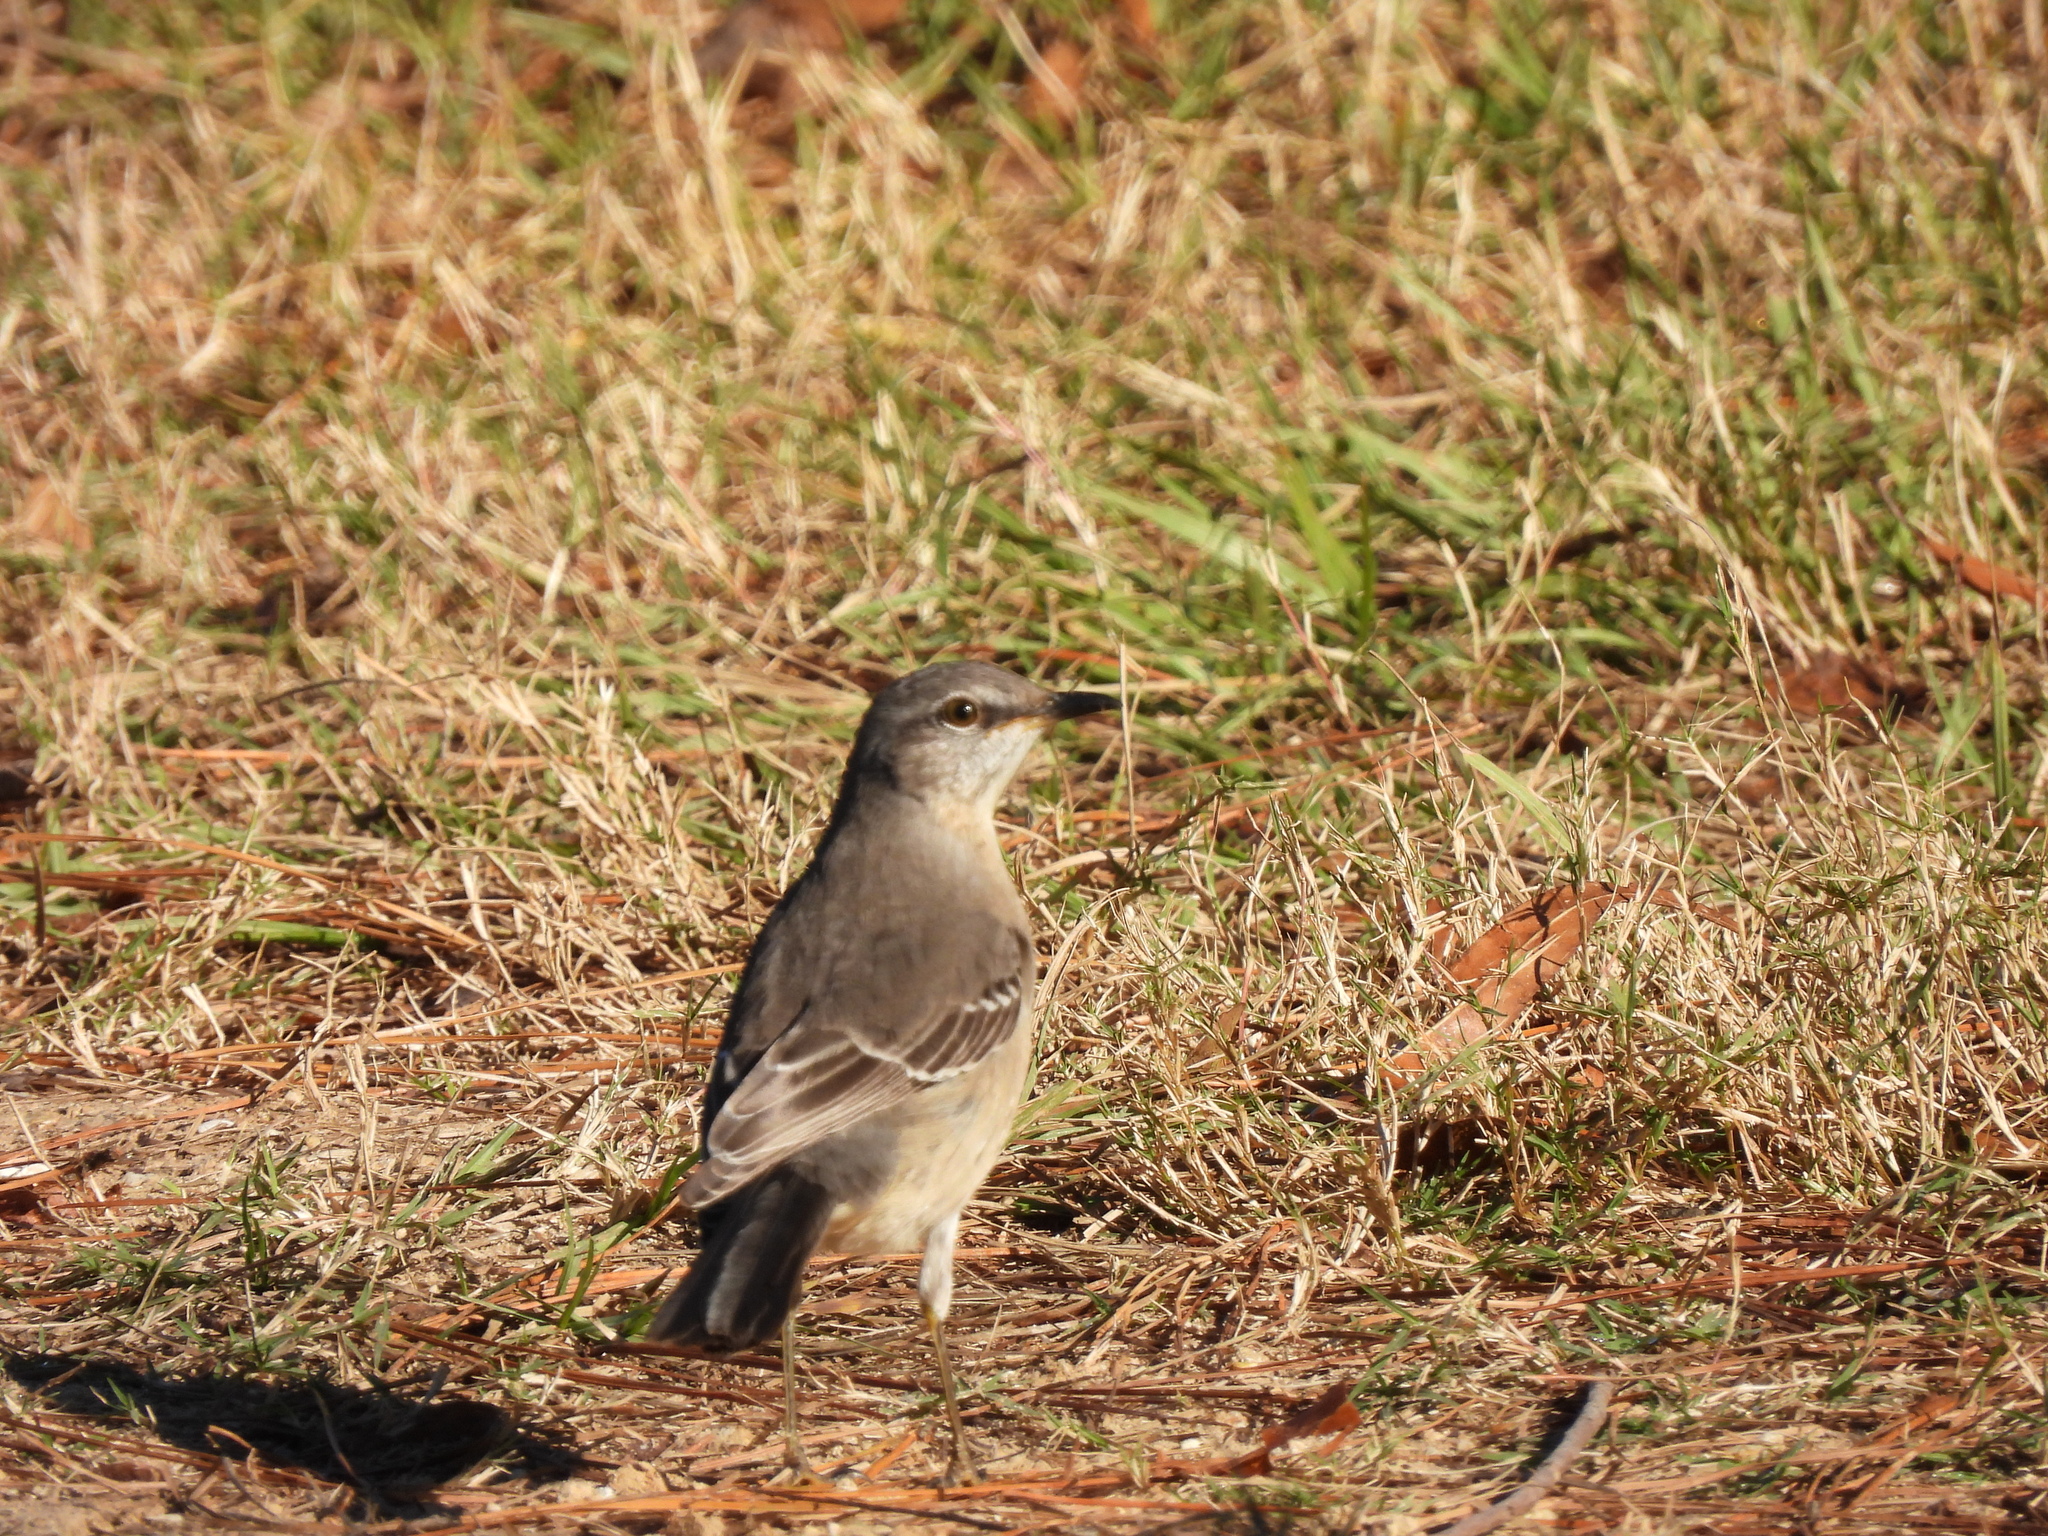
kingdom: Animalia
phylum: Chordata
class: Aves
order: Passeriformes
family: Mimidae
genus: Mimus
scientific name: Mimus polyglottos
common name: Northern mockingbird
